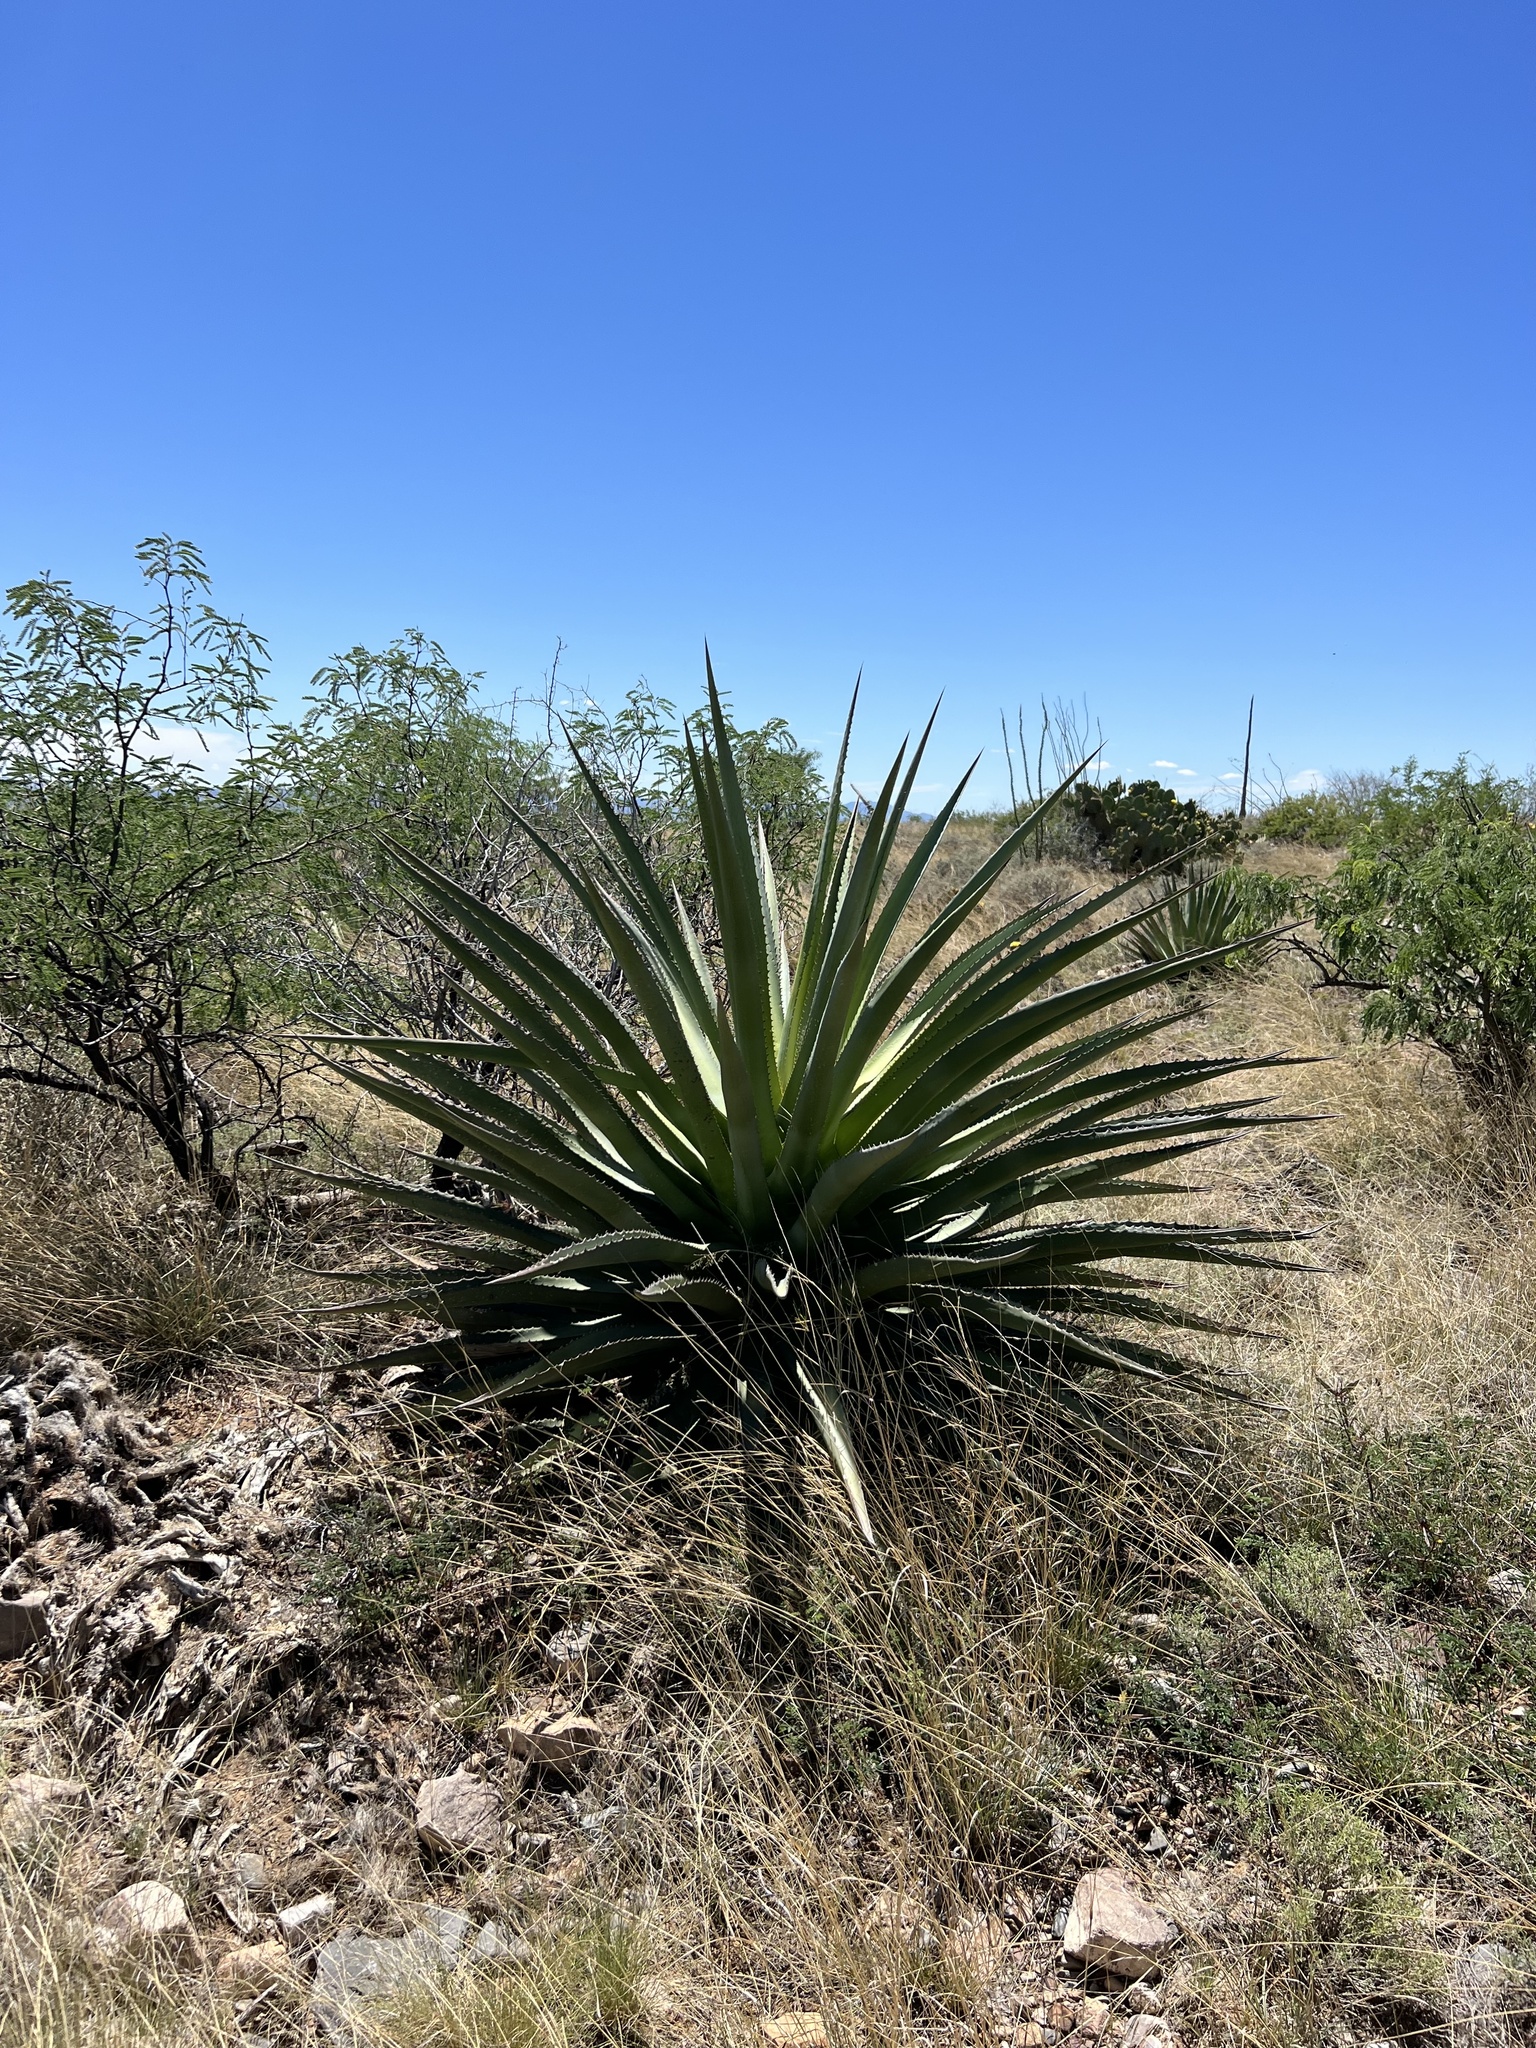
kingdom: Plantae
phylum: Tracheophyta
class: Liliopsida
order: Asparagales
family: Asparagaceae
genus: Agave
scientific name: Agave palmeri
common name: Palmer agave
